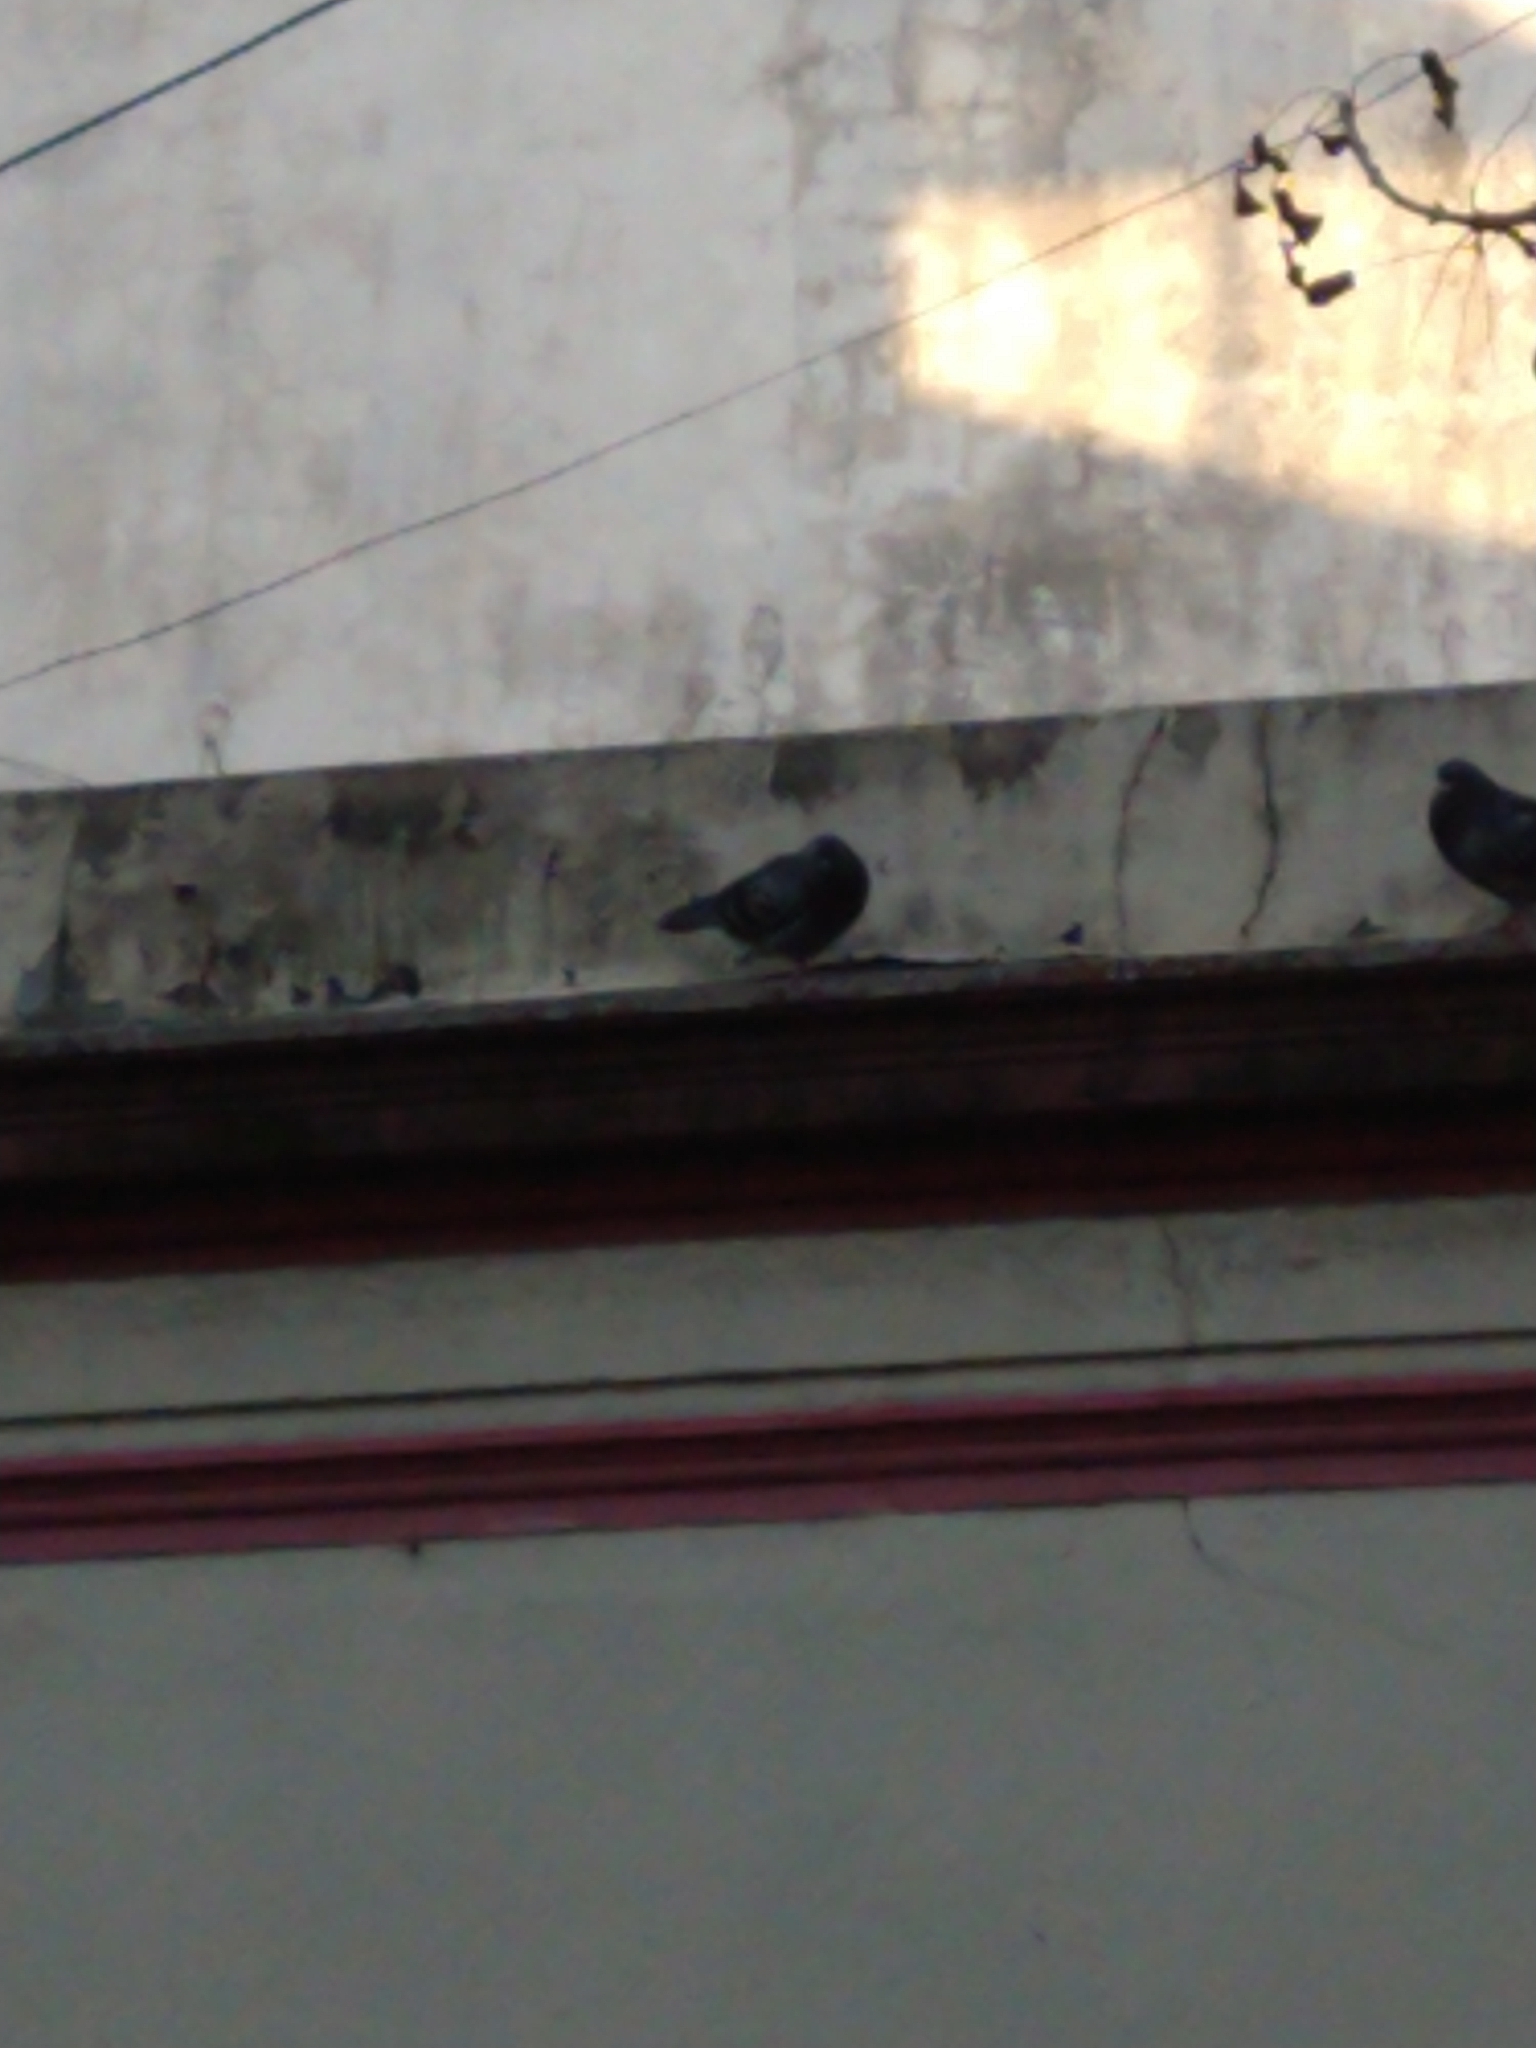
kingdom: Animalia
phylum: Chordata
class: Aves
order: Columbiformes
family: Columbidae
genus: Columba
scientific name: Columba livia
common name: Rock pigeon
